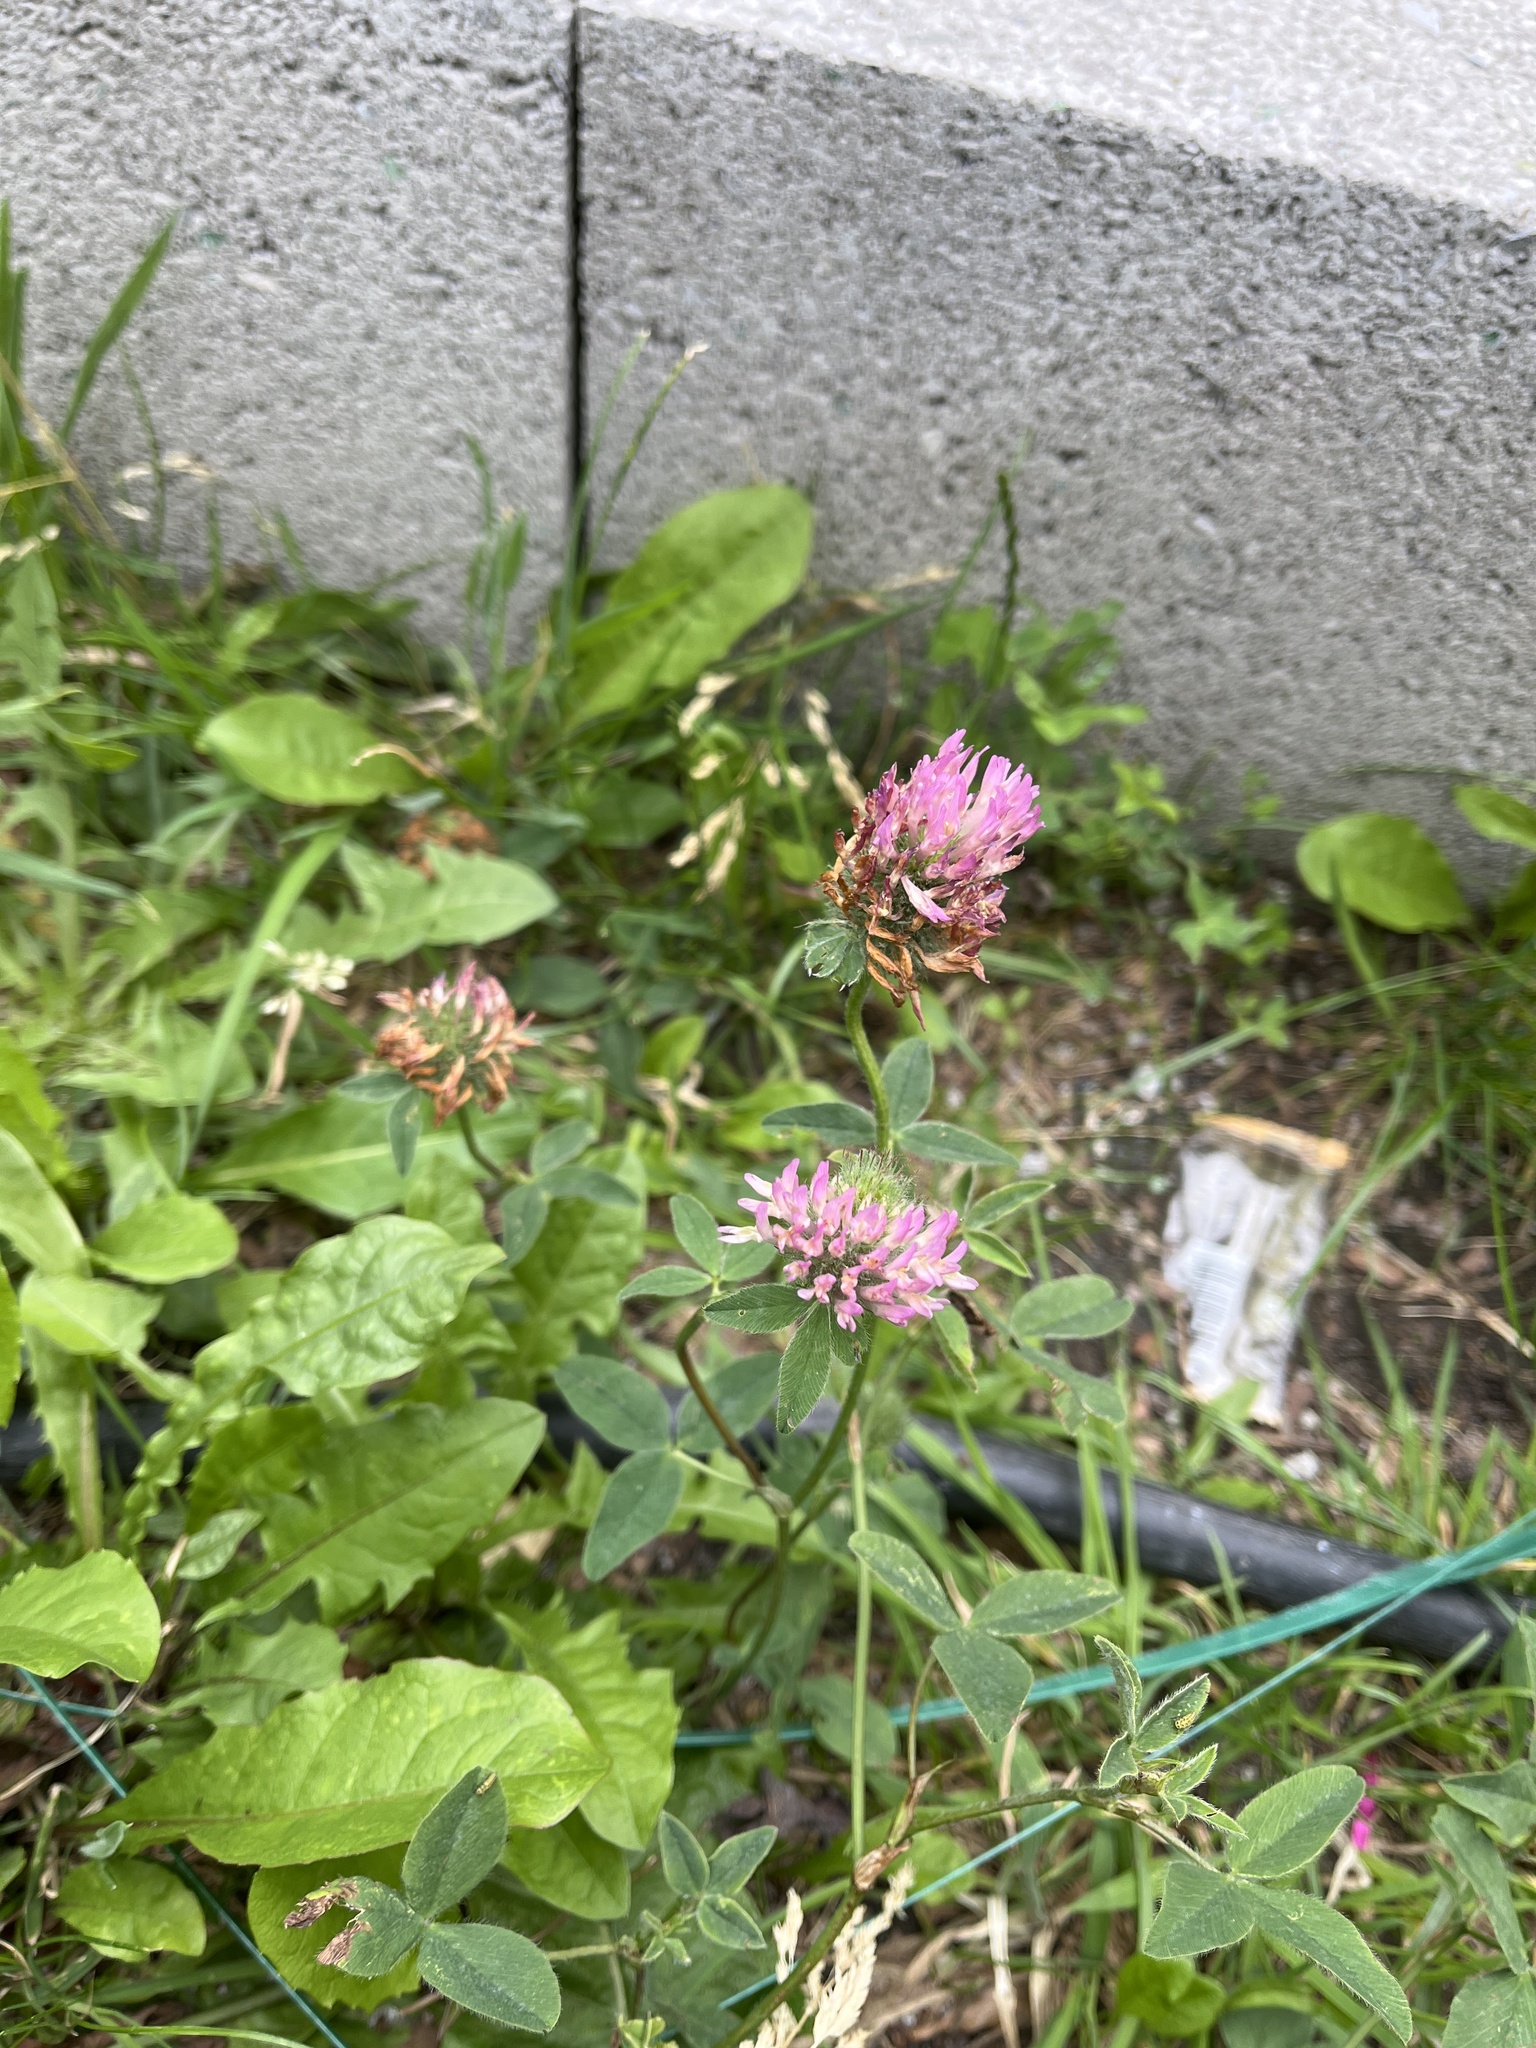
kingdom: Plantae
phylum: Tracheophyta
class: Magnoliopsida
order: Fabales
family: Fabaceae
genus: Trifolium
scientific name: Trifolium pratense
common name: Red clover
